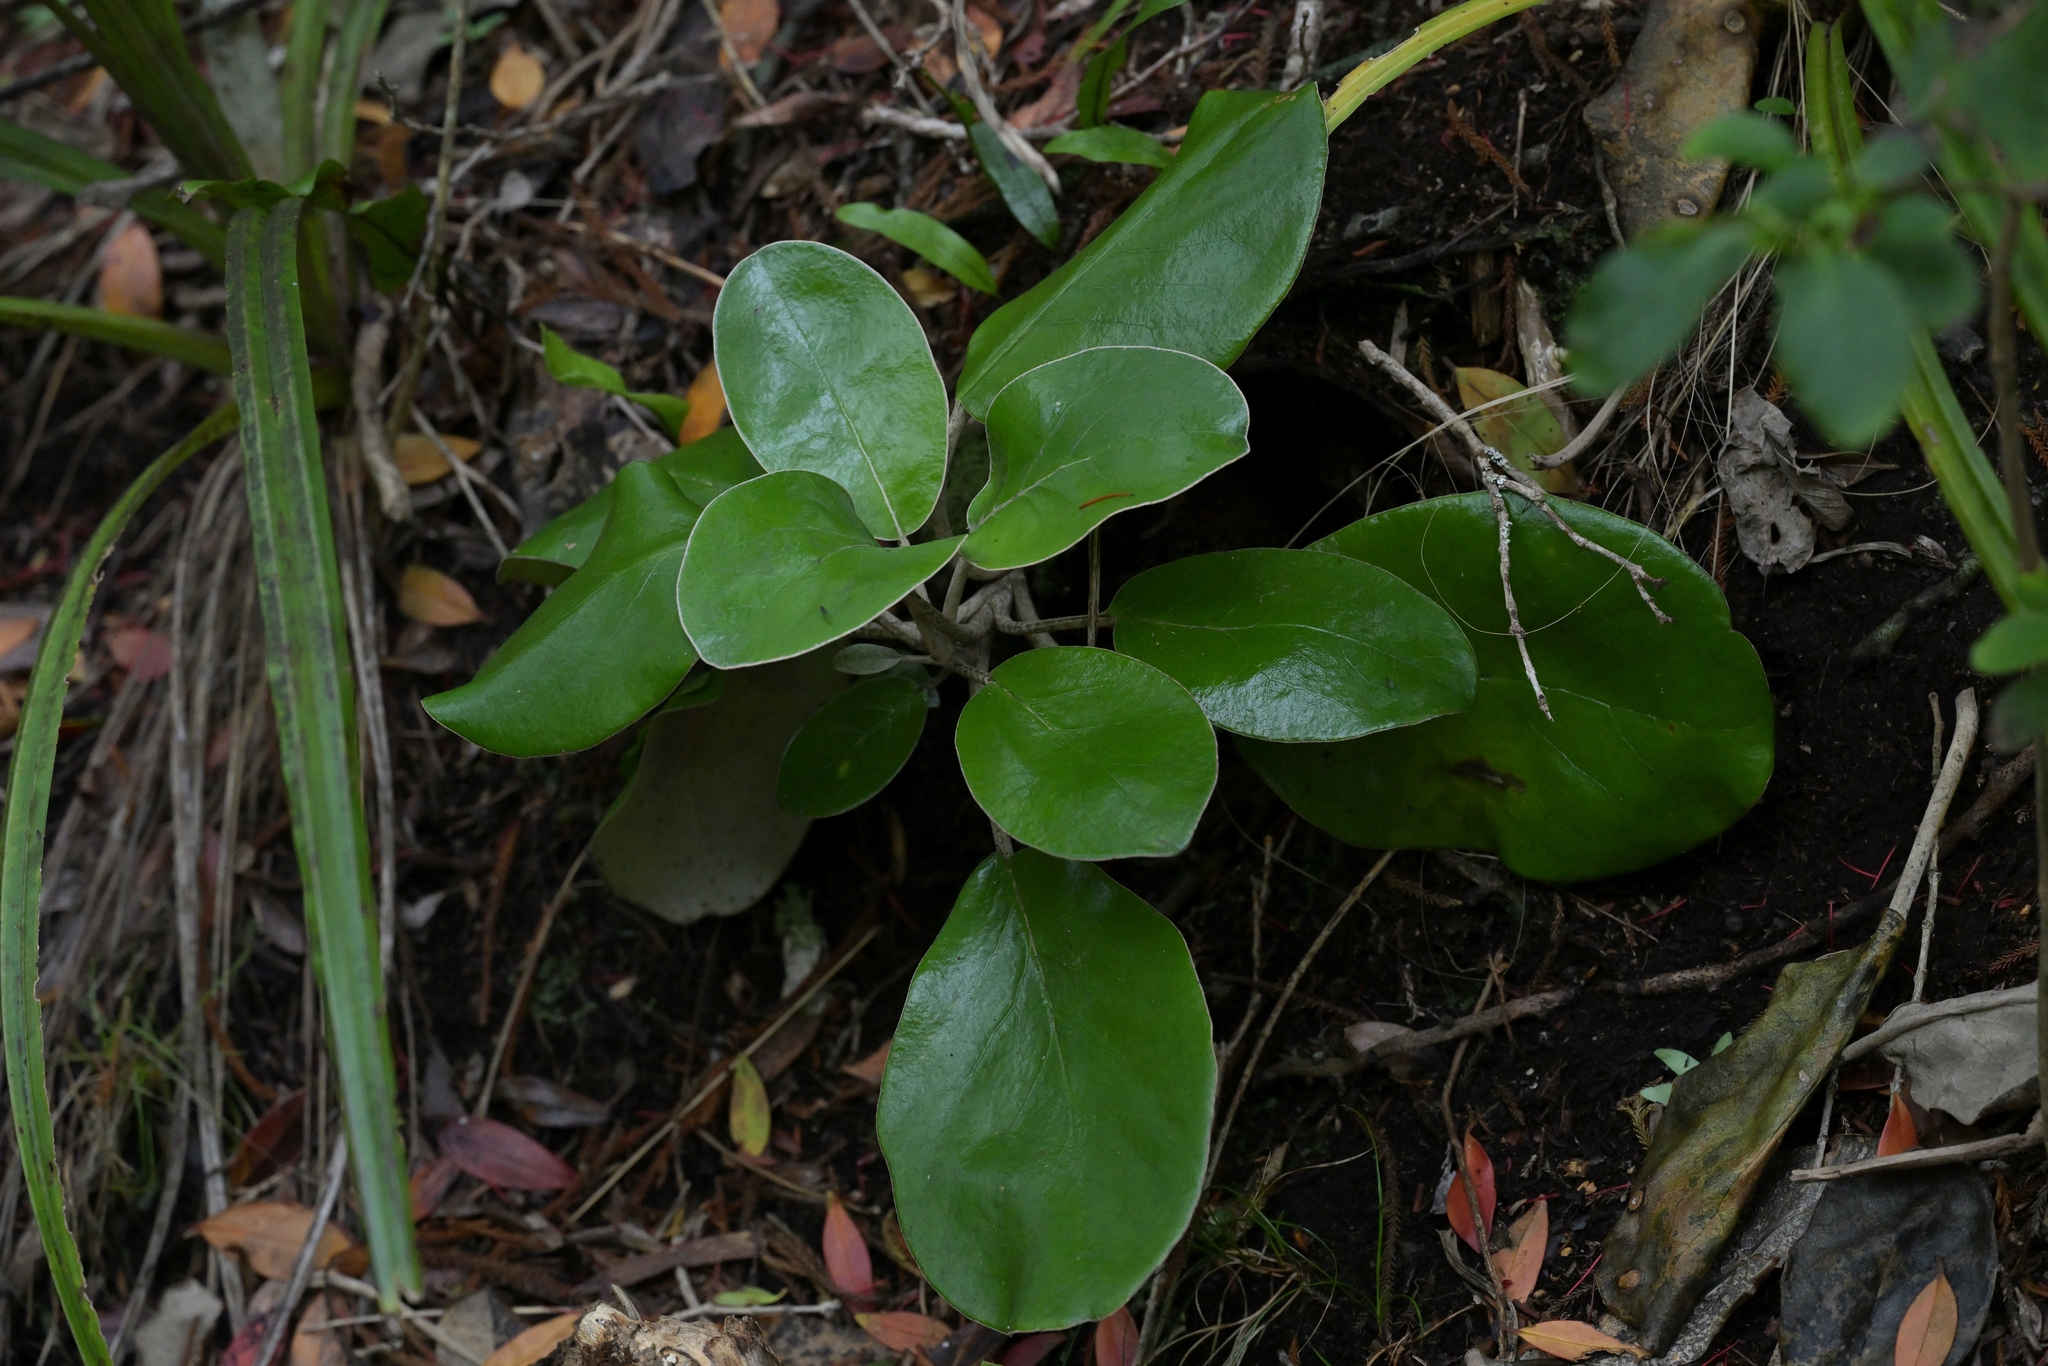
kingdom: Plantae
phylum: Tracheophyta
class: Magnoliopsida
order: Asterales
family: Asteraceae
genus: Brachyglottis
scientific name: Brachyglottis rotundifolia
